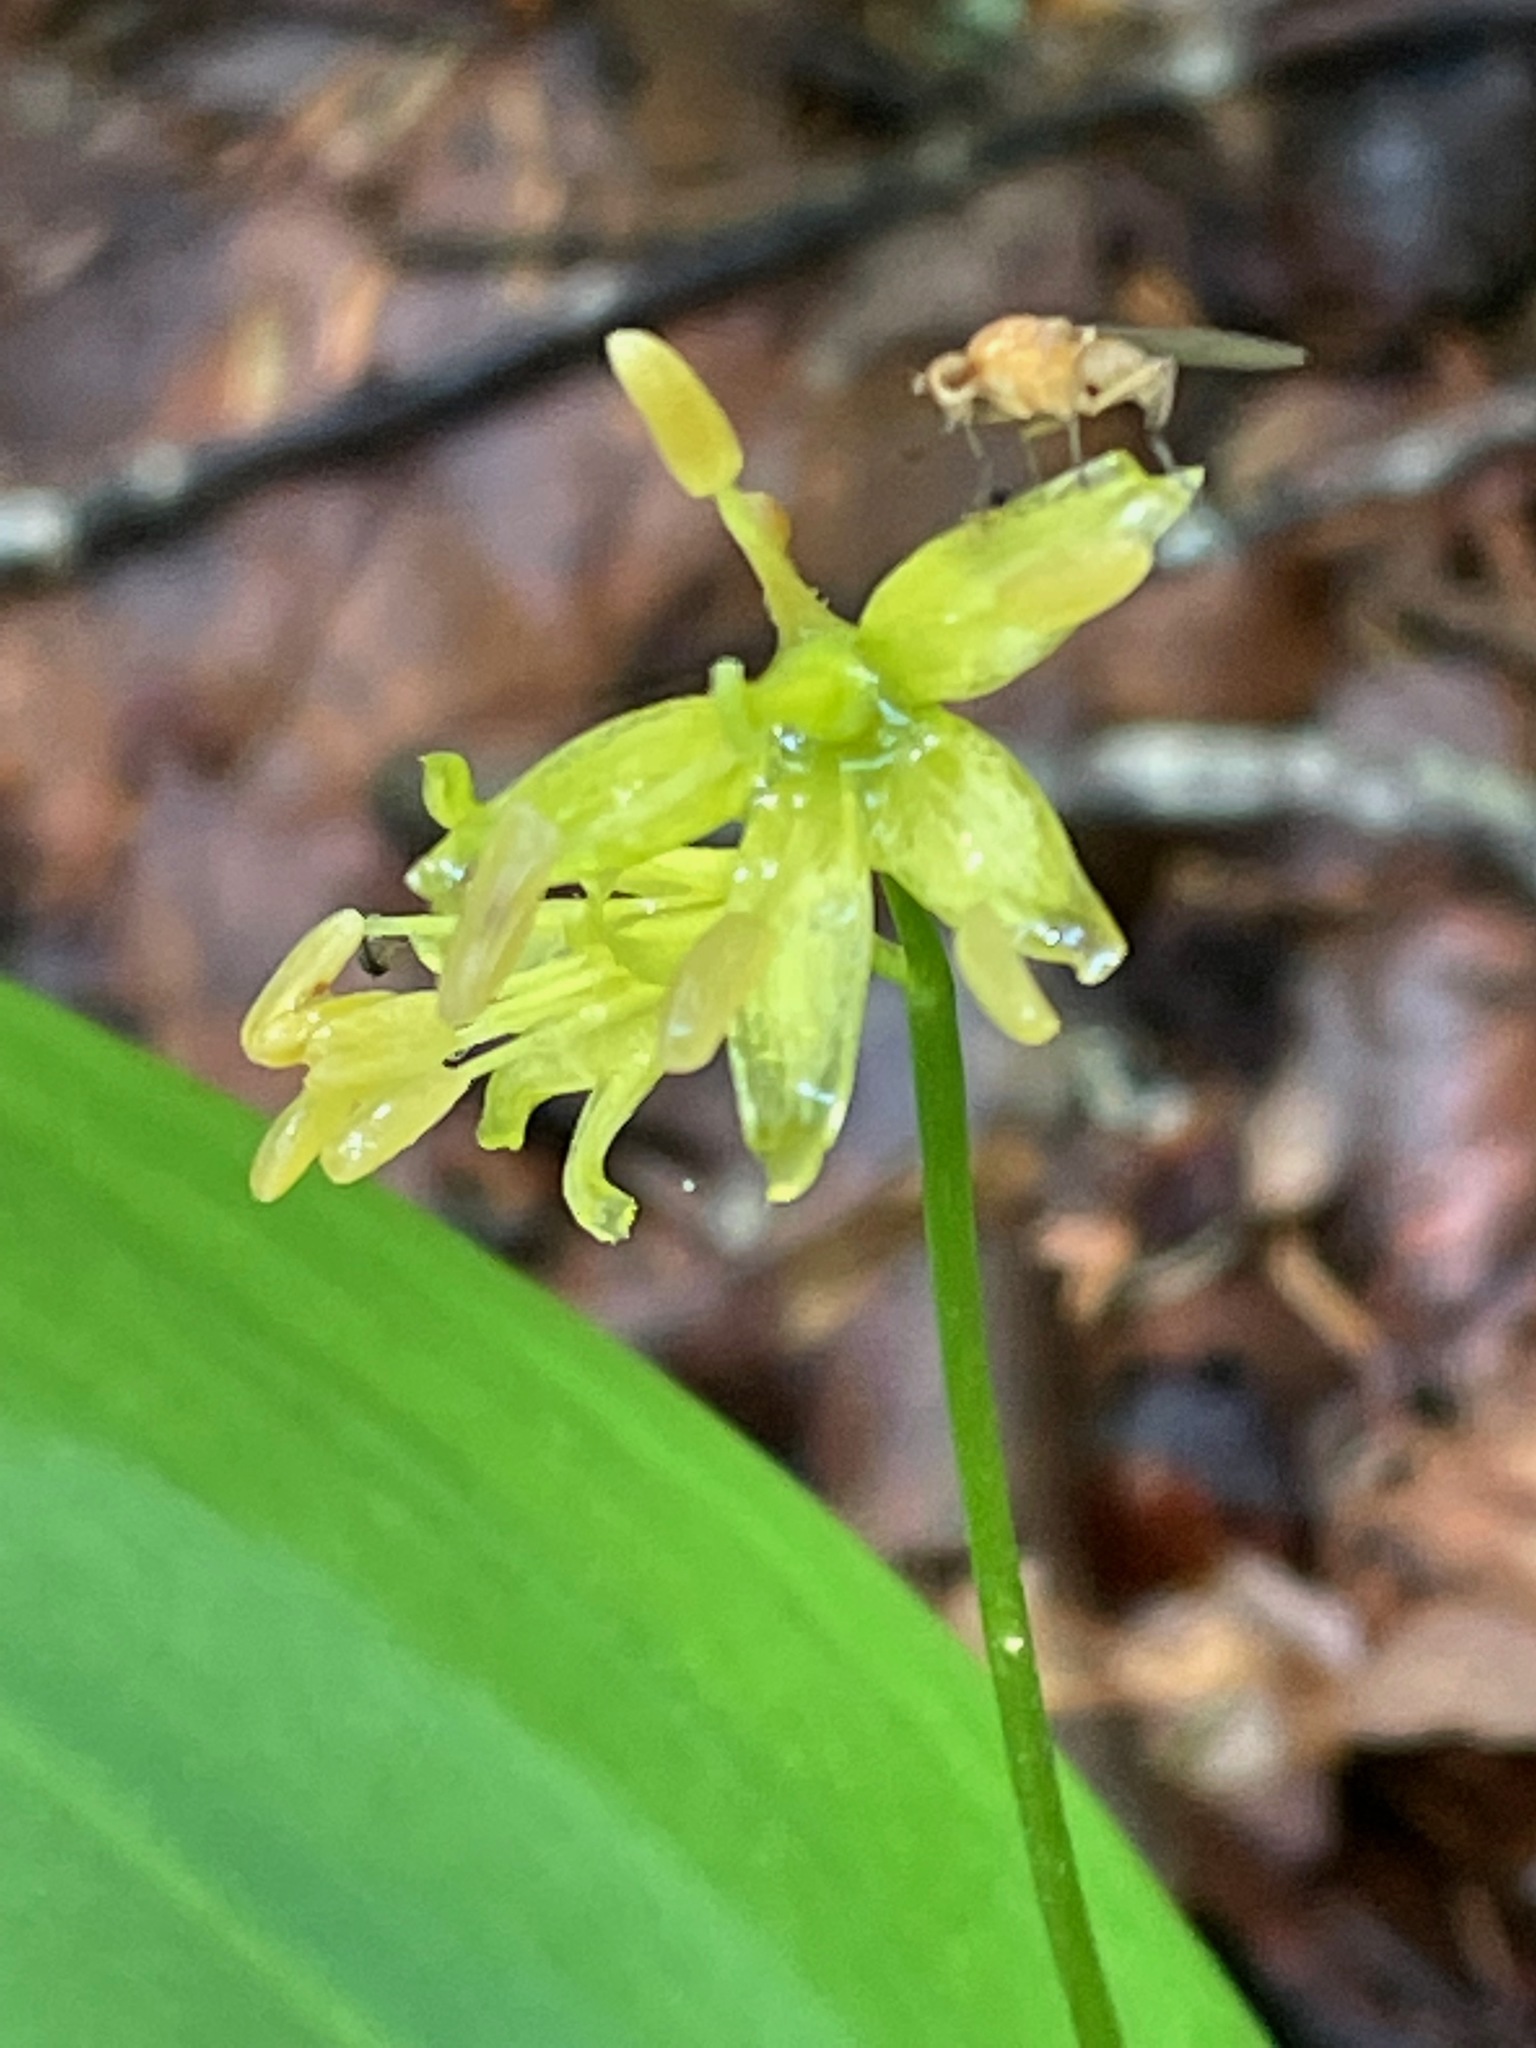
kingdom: Plantae
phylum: Tracheophyta
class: Liliopsida
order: Liliales
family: Liliaceae
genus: Clintonia
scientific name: Clintonia borealis
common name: Yellow clintonia
